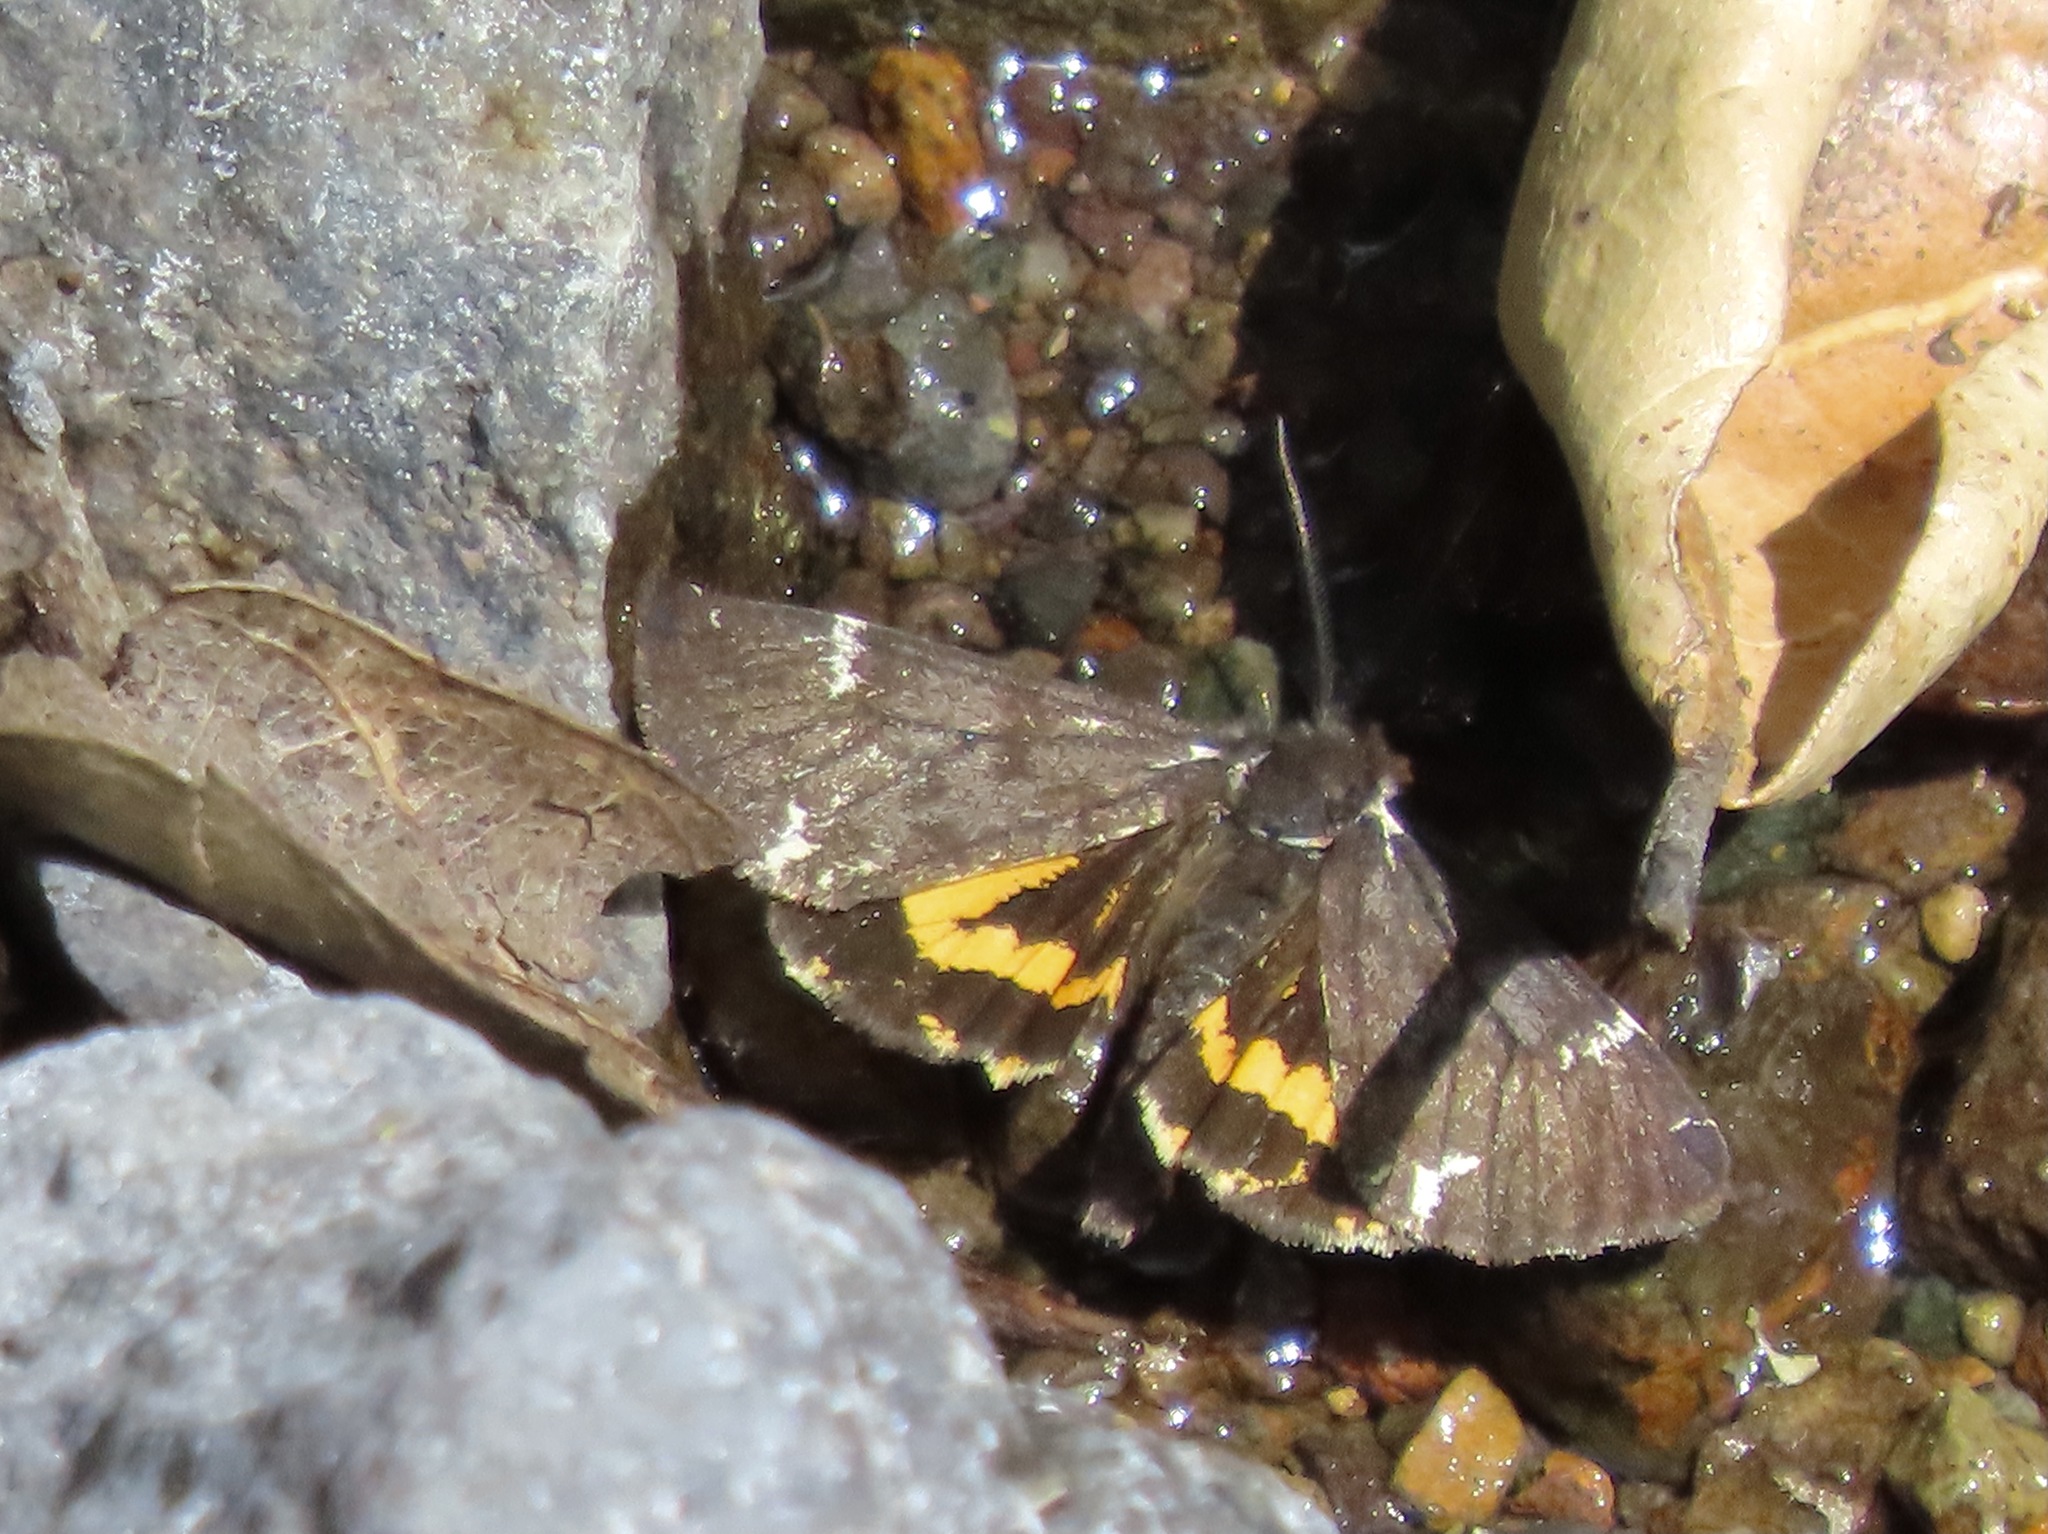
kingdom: Animalia
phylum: Arthropoda
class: Insecta
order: Lepidoptera
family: Erebidae
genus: Leptarctia
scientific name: Leptarctia californiae
